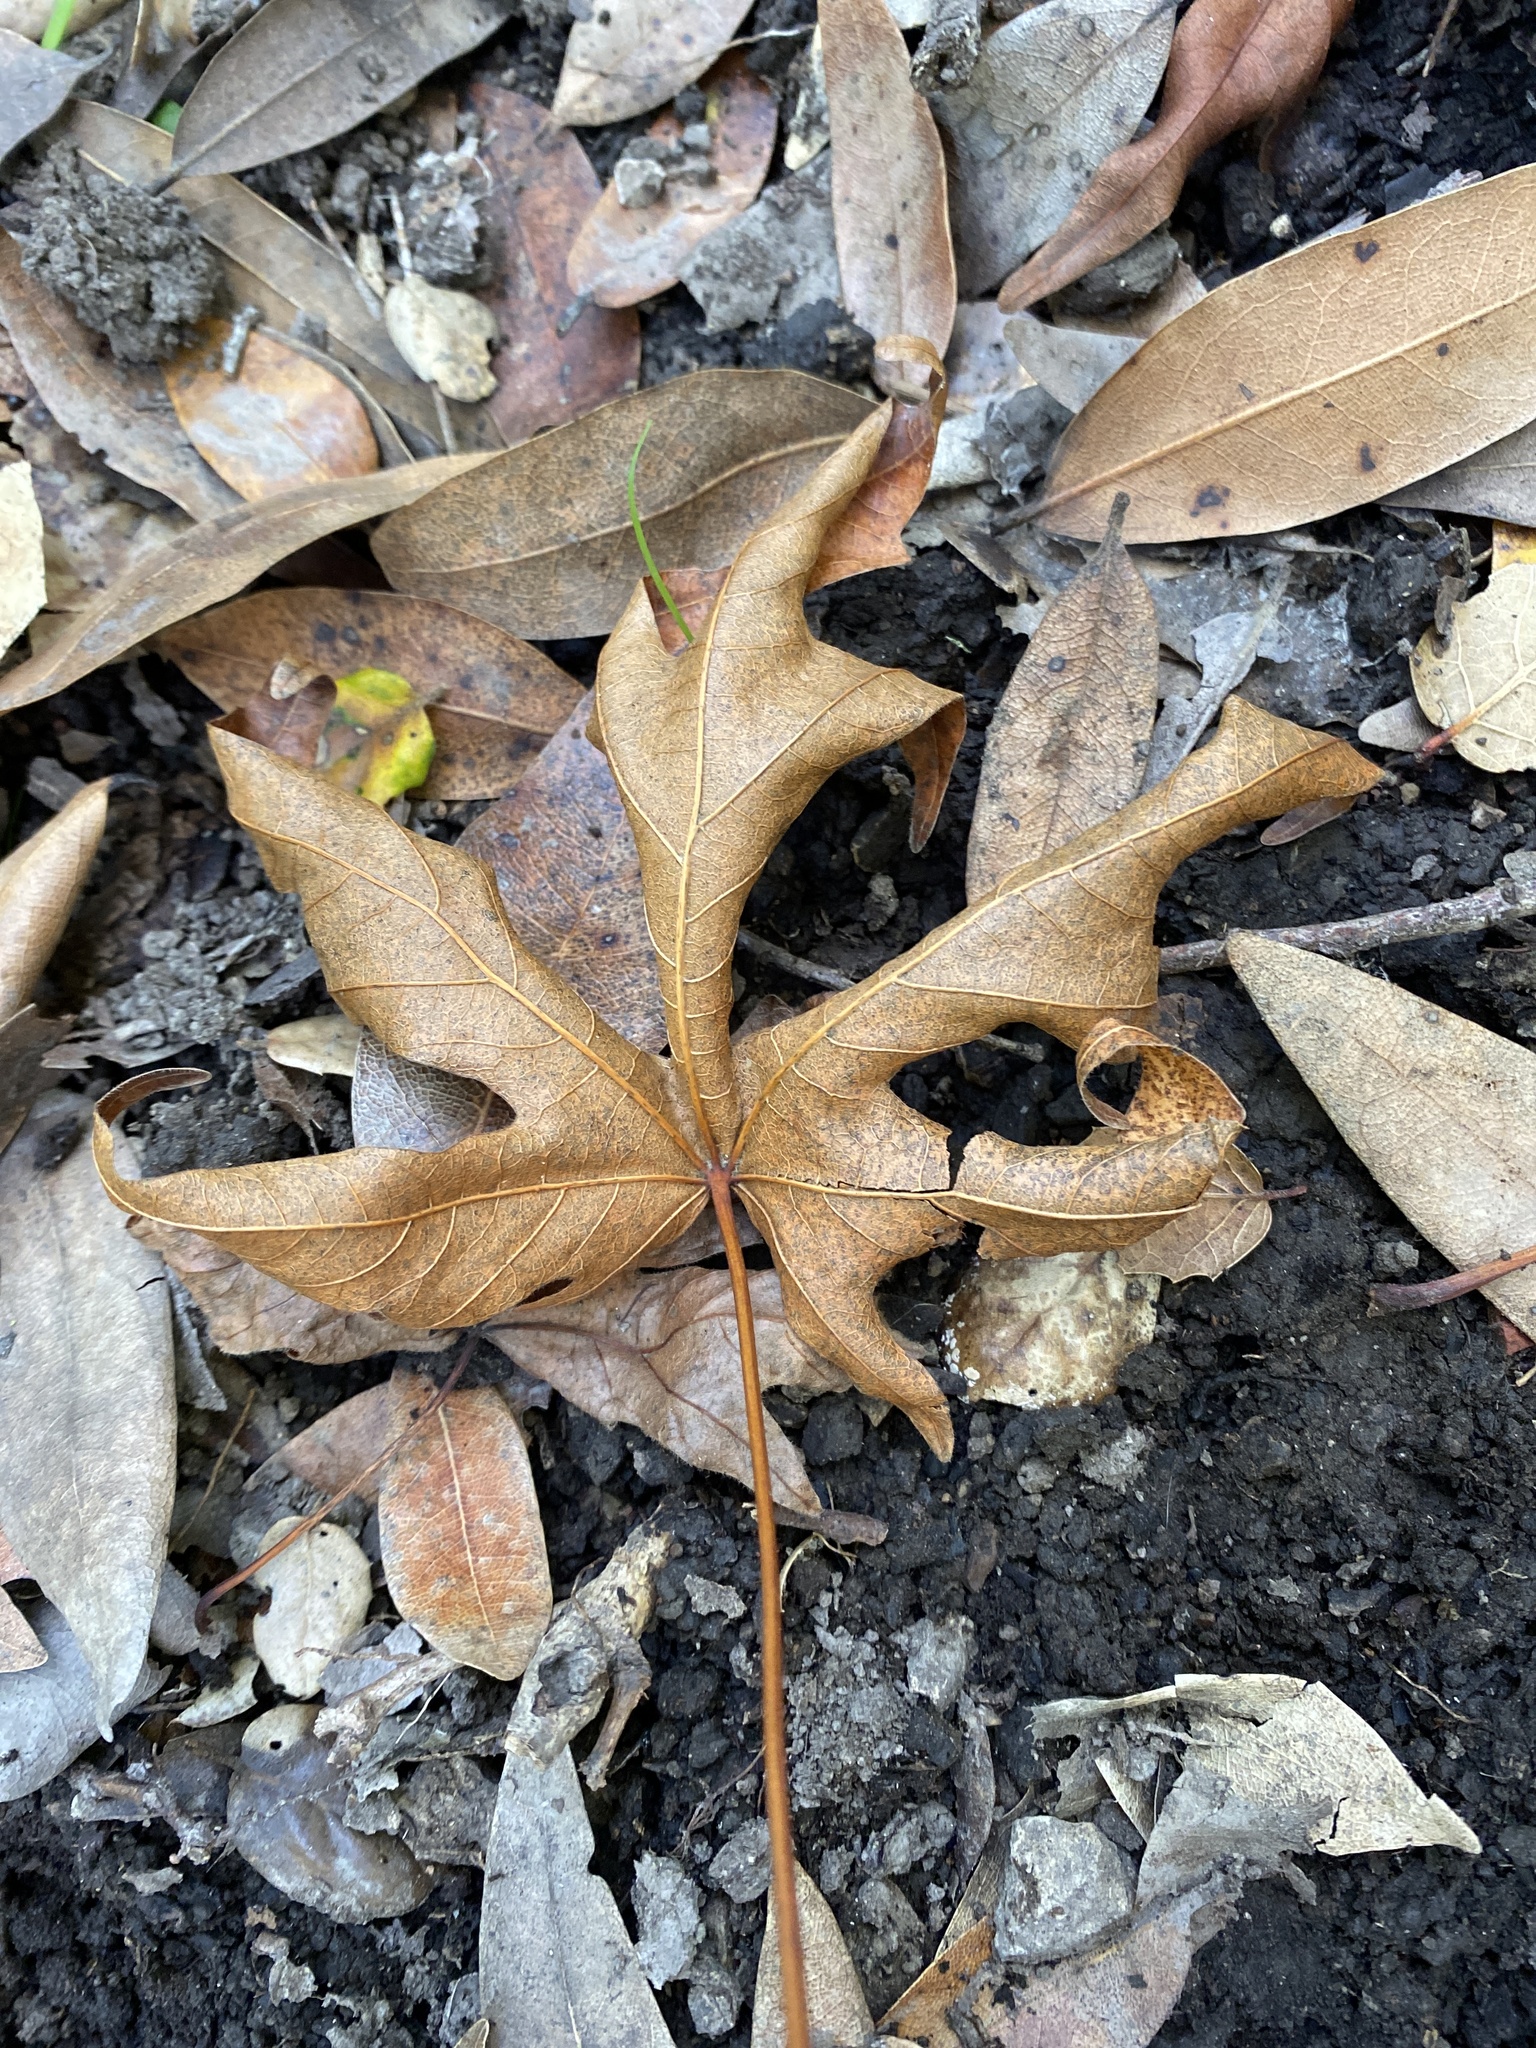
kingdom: Plantae
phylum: Tracheophyta
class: Magnoliopsida
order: Sapindales
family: Sapindaceae
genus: Acer
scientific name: Acer macrophyllum
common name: Oregon maple
